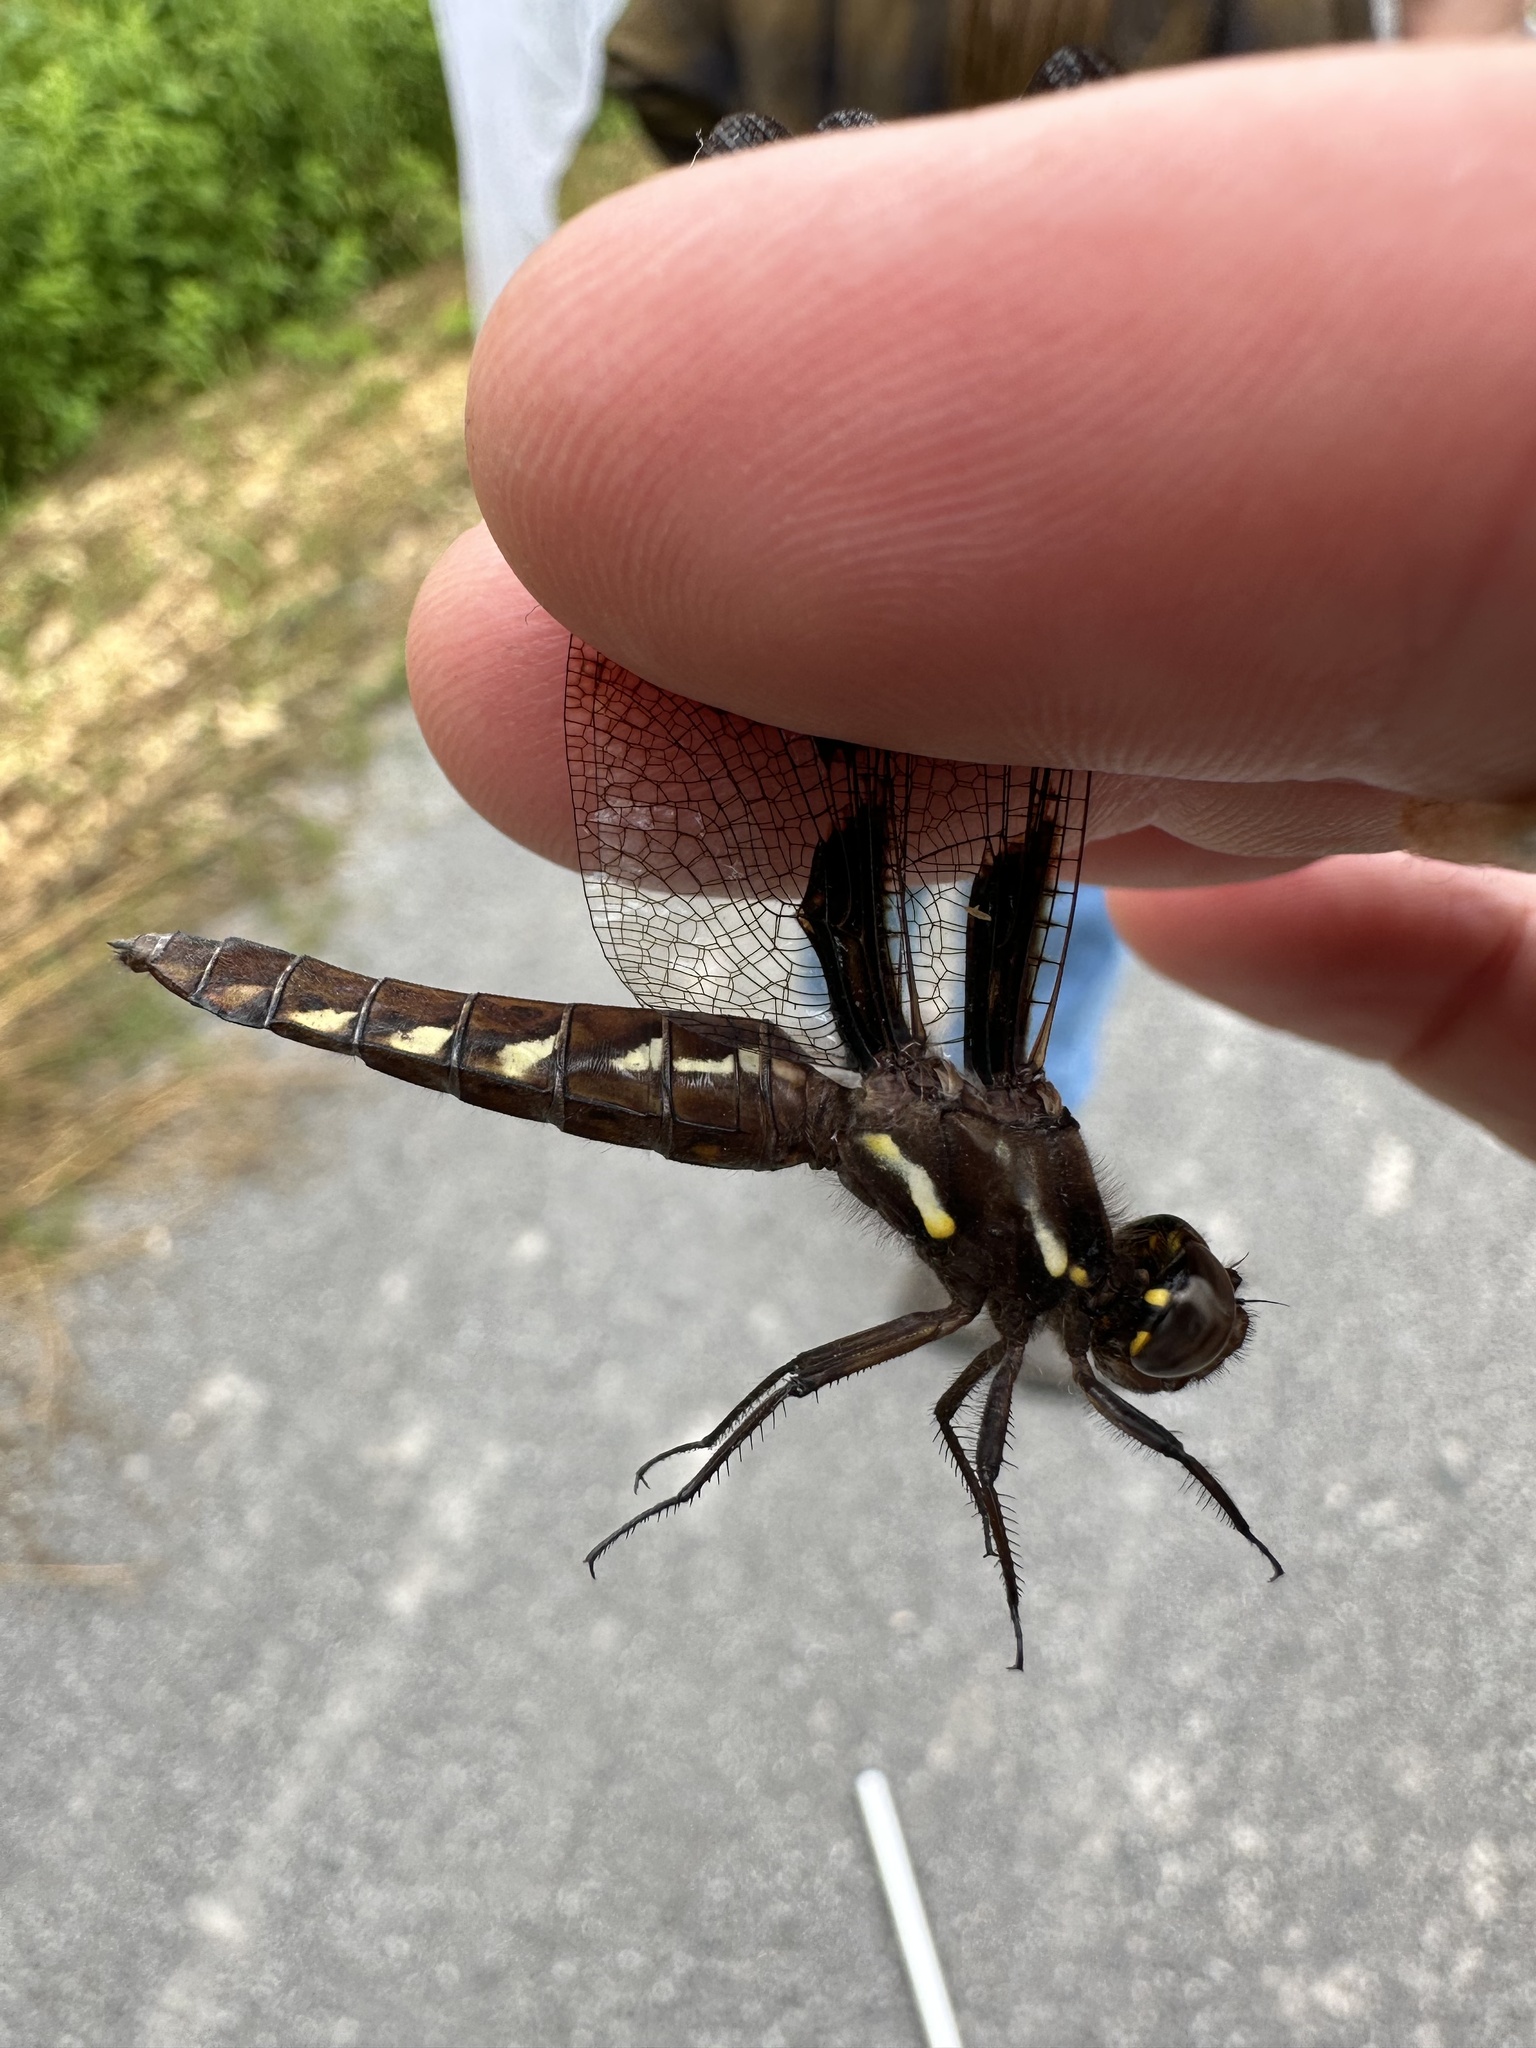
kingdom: Animalia
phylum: Arthropoda
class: Insecta
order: Odonata
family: Libellulidae
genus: Plathemis
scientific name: Plathemis lydia
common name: Common whitetail
